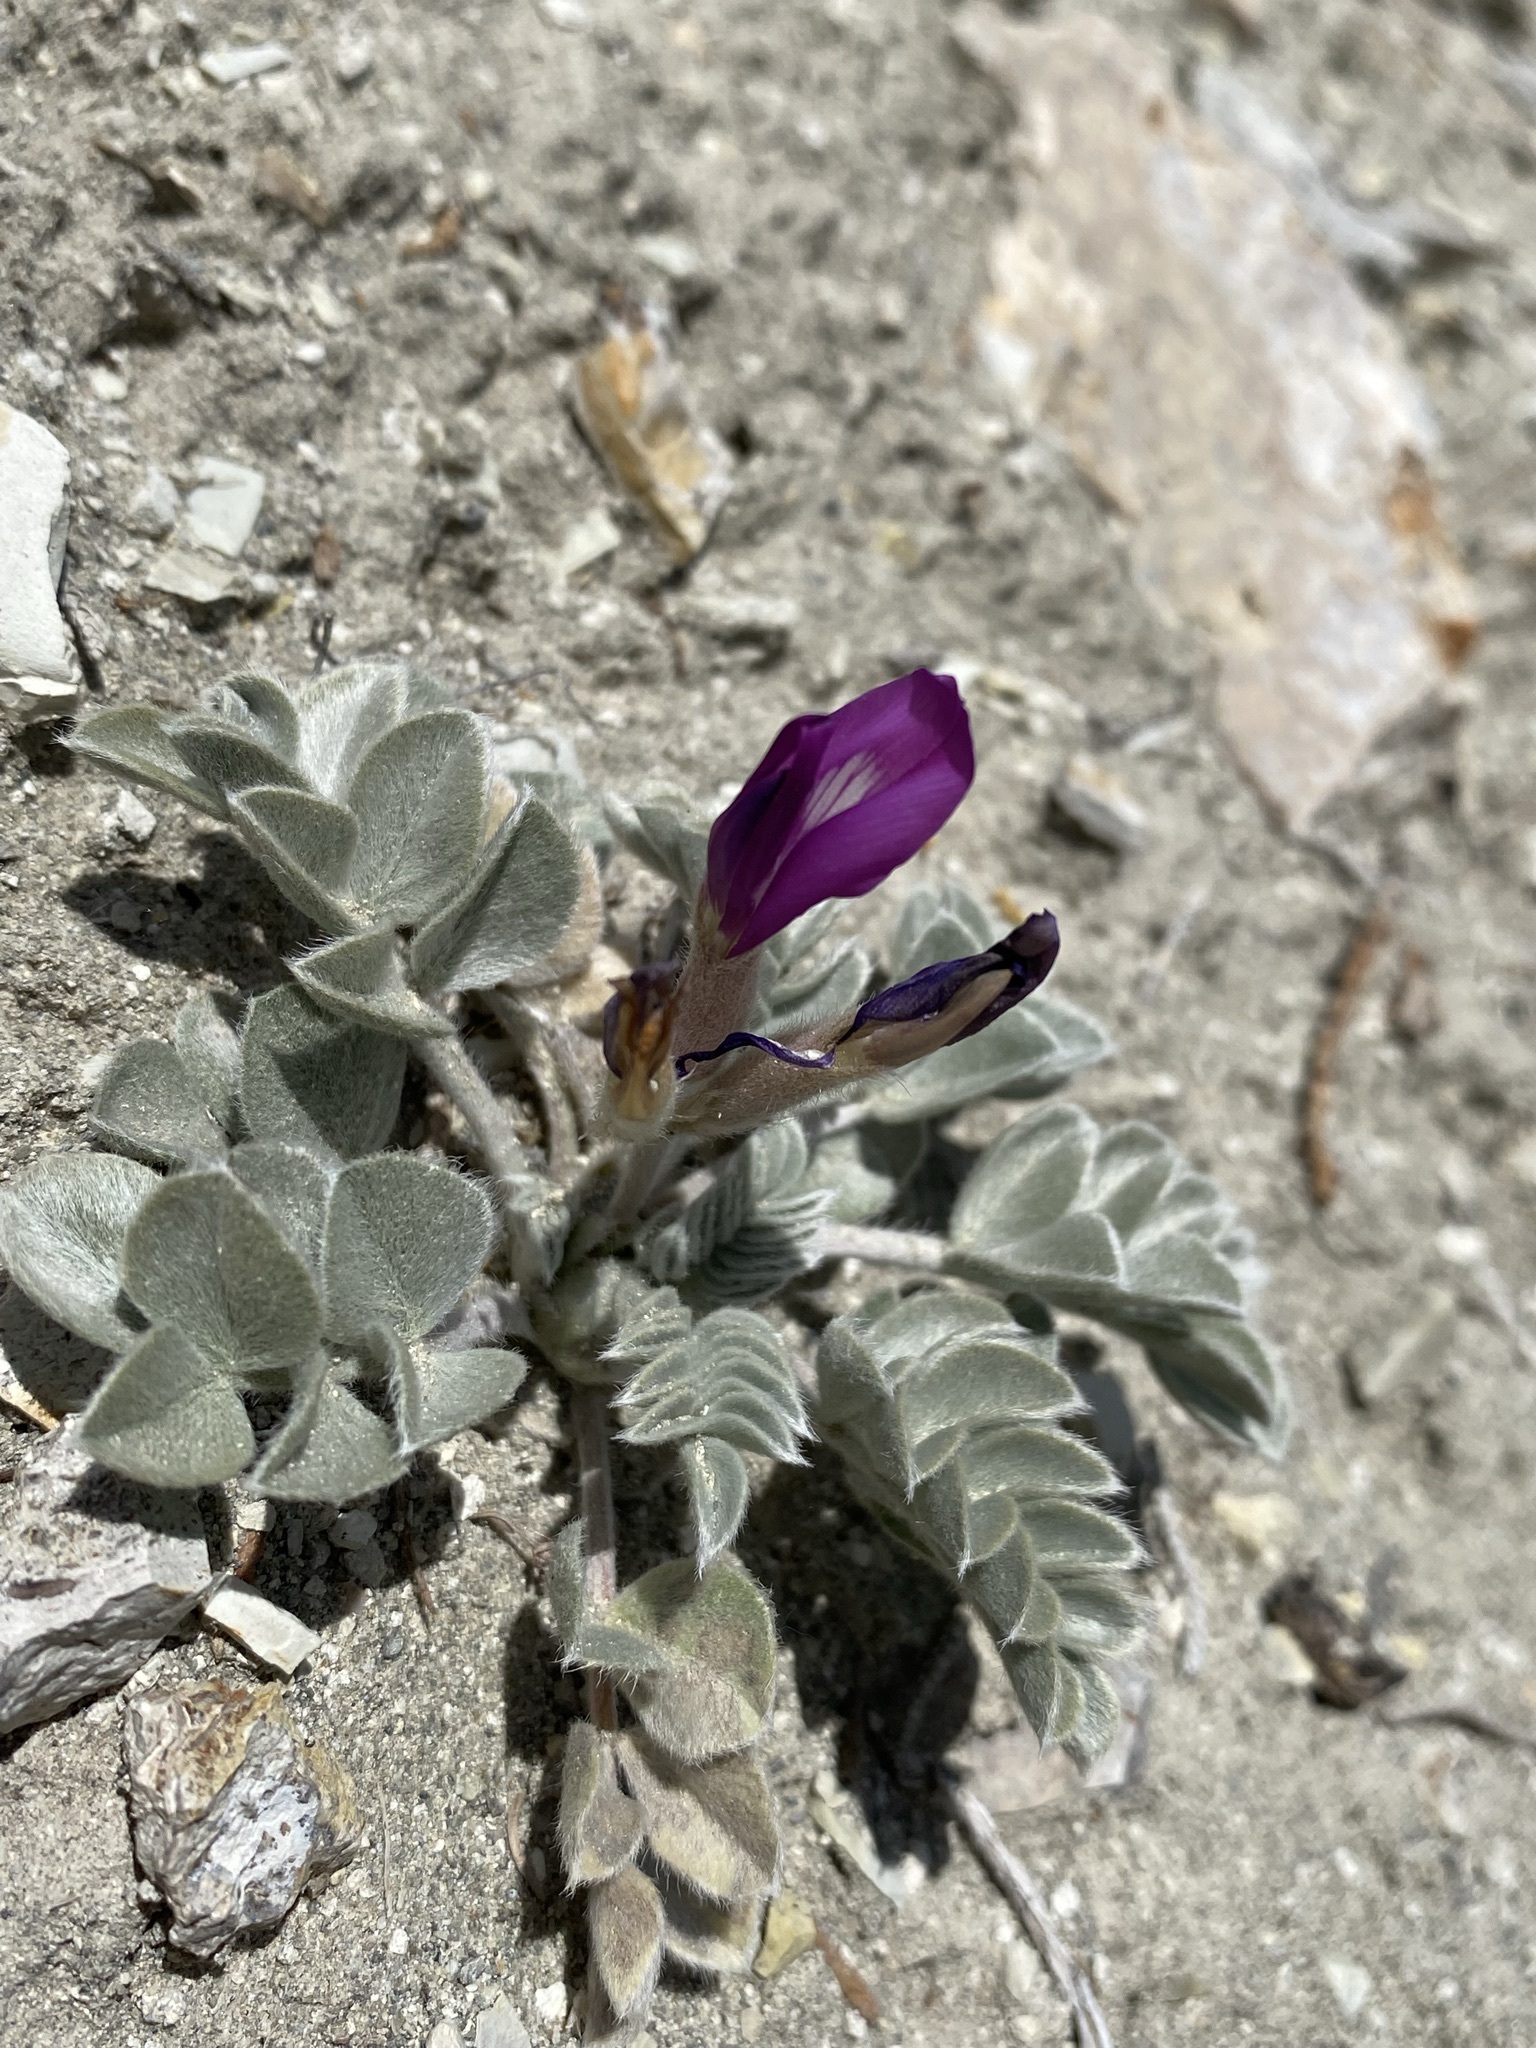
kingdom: Plantae
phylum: Tracheophyta
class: Magnoliopsida
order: Fabales
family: Fabaceae
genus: Astragalus
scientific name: Astragalus newberryi
